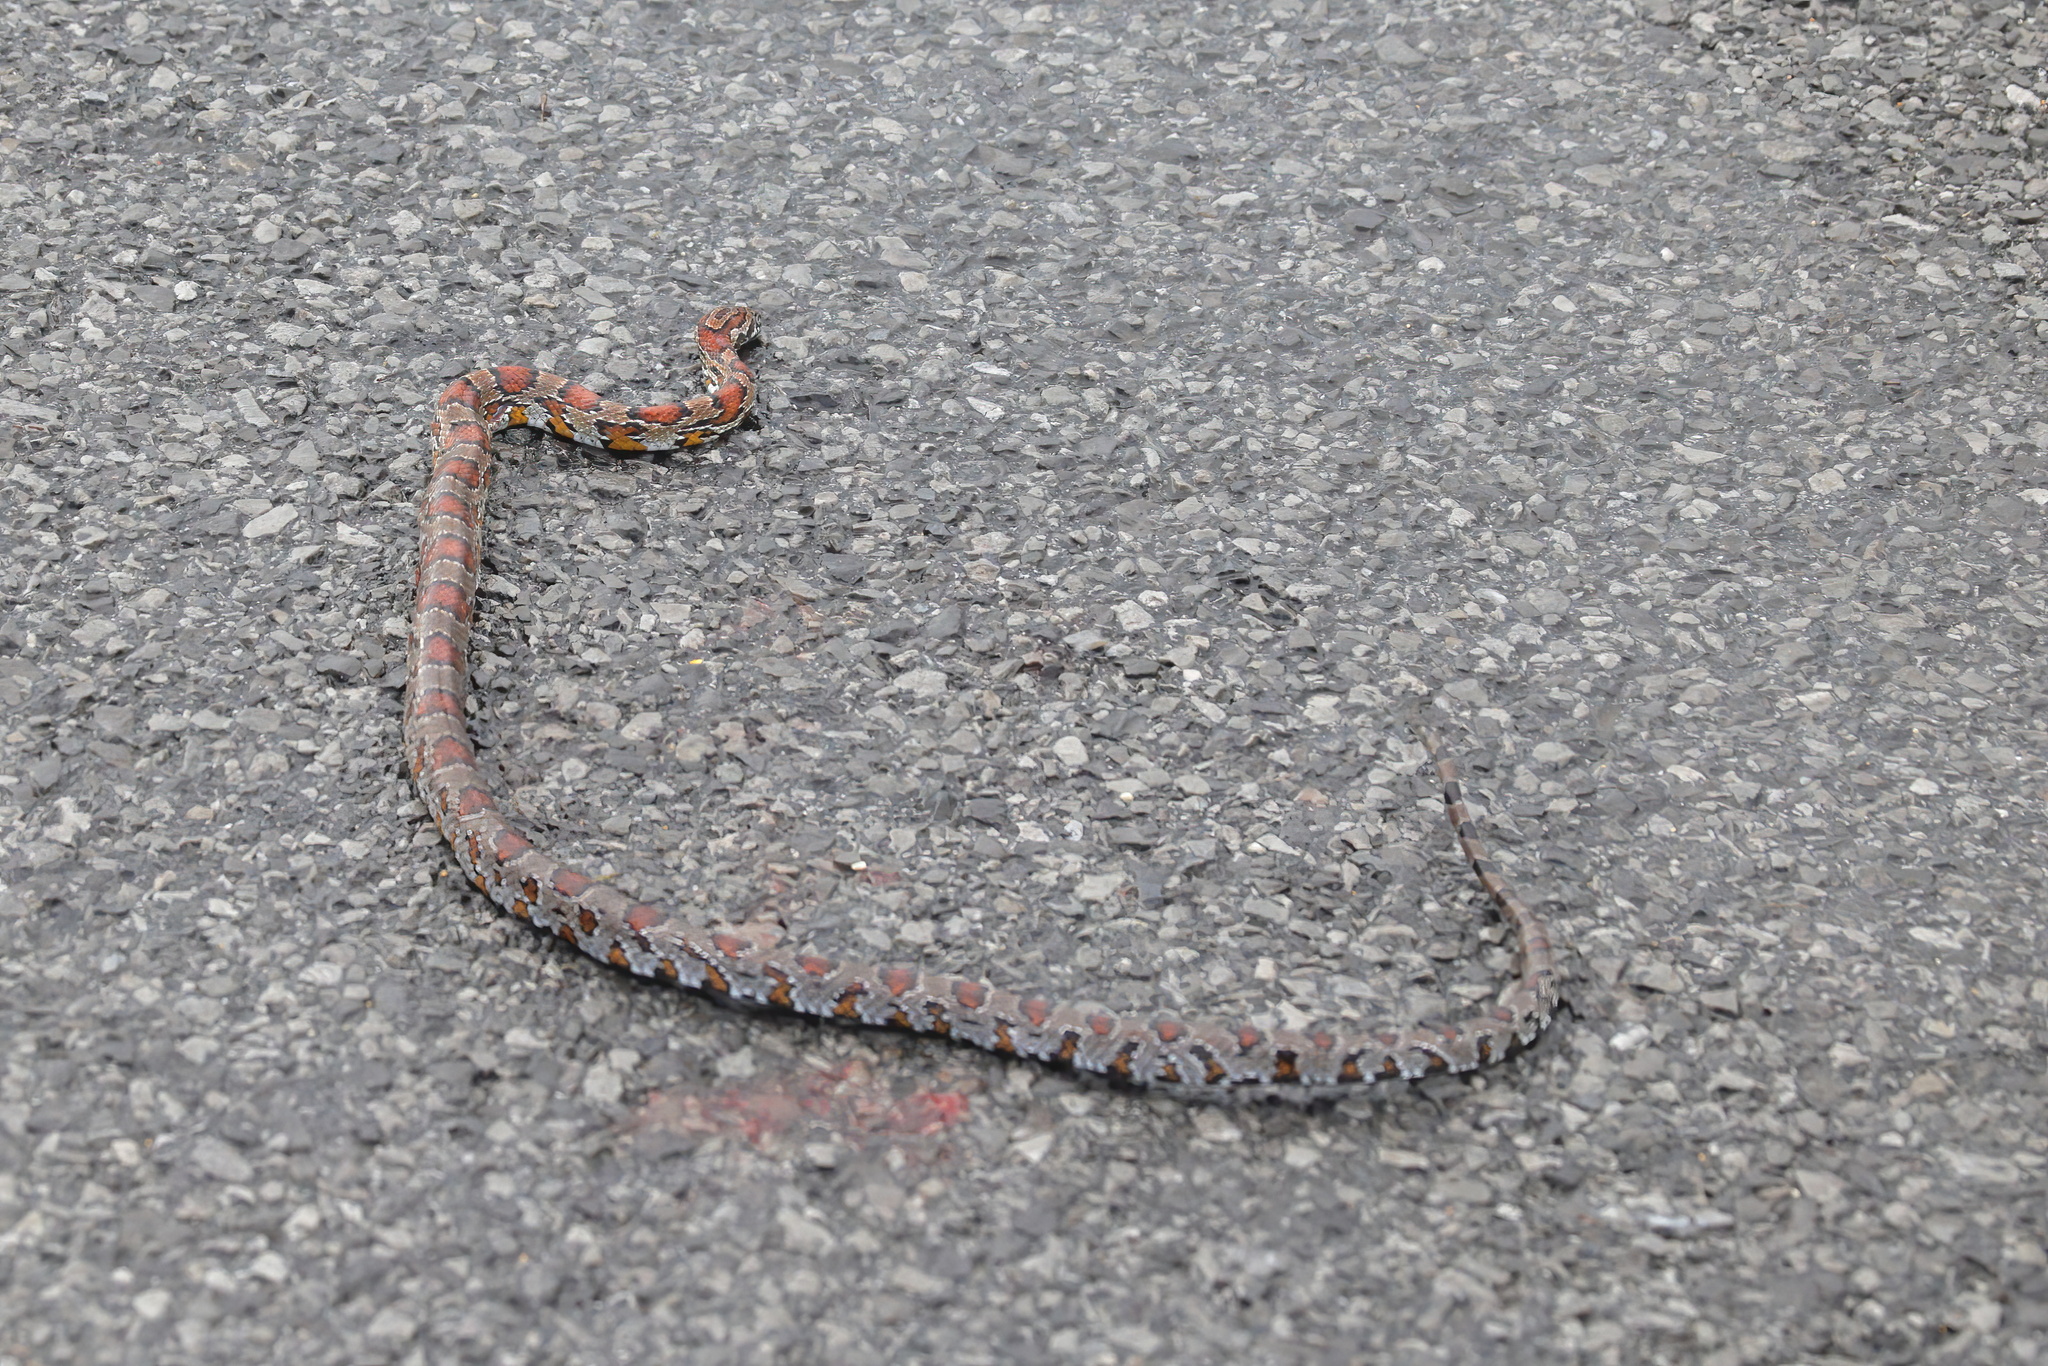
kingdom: Animalia
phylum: Chordata
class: Squamata
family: Colubridae
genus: Pantherophis
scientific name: Pantherophis guttatus
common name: Red cornsnake
